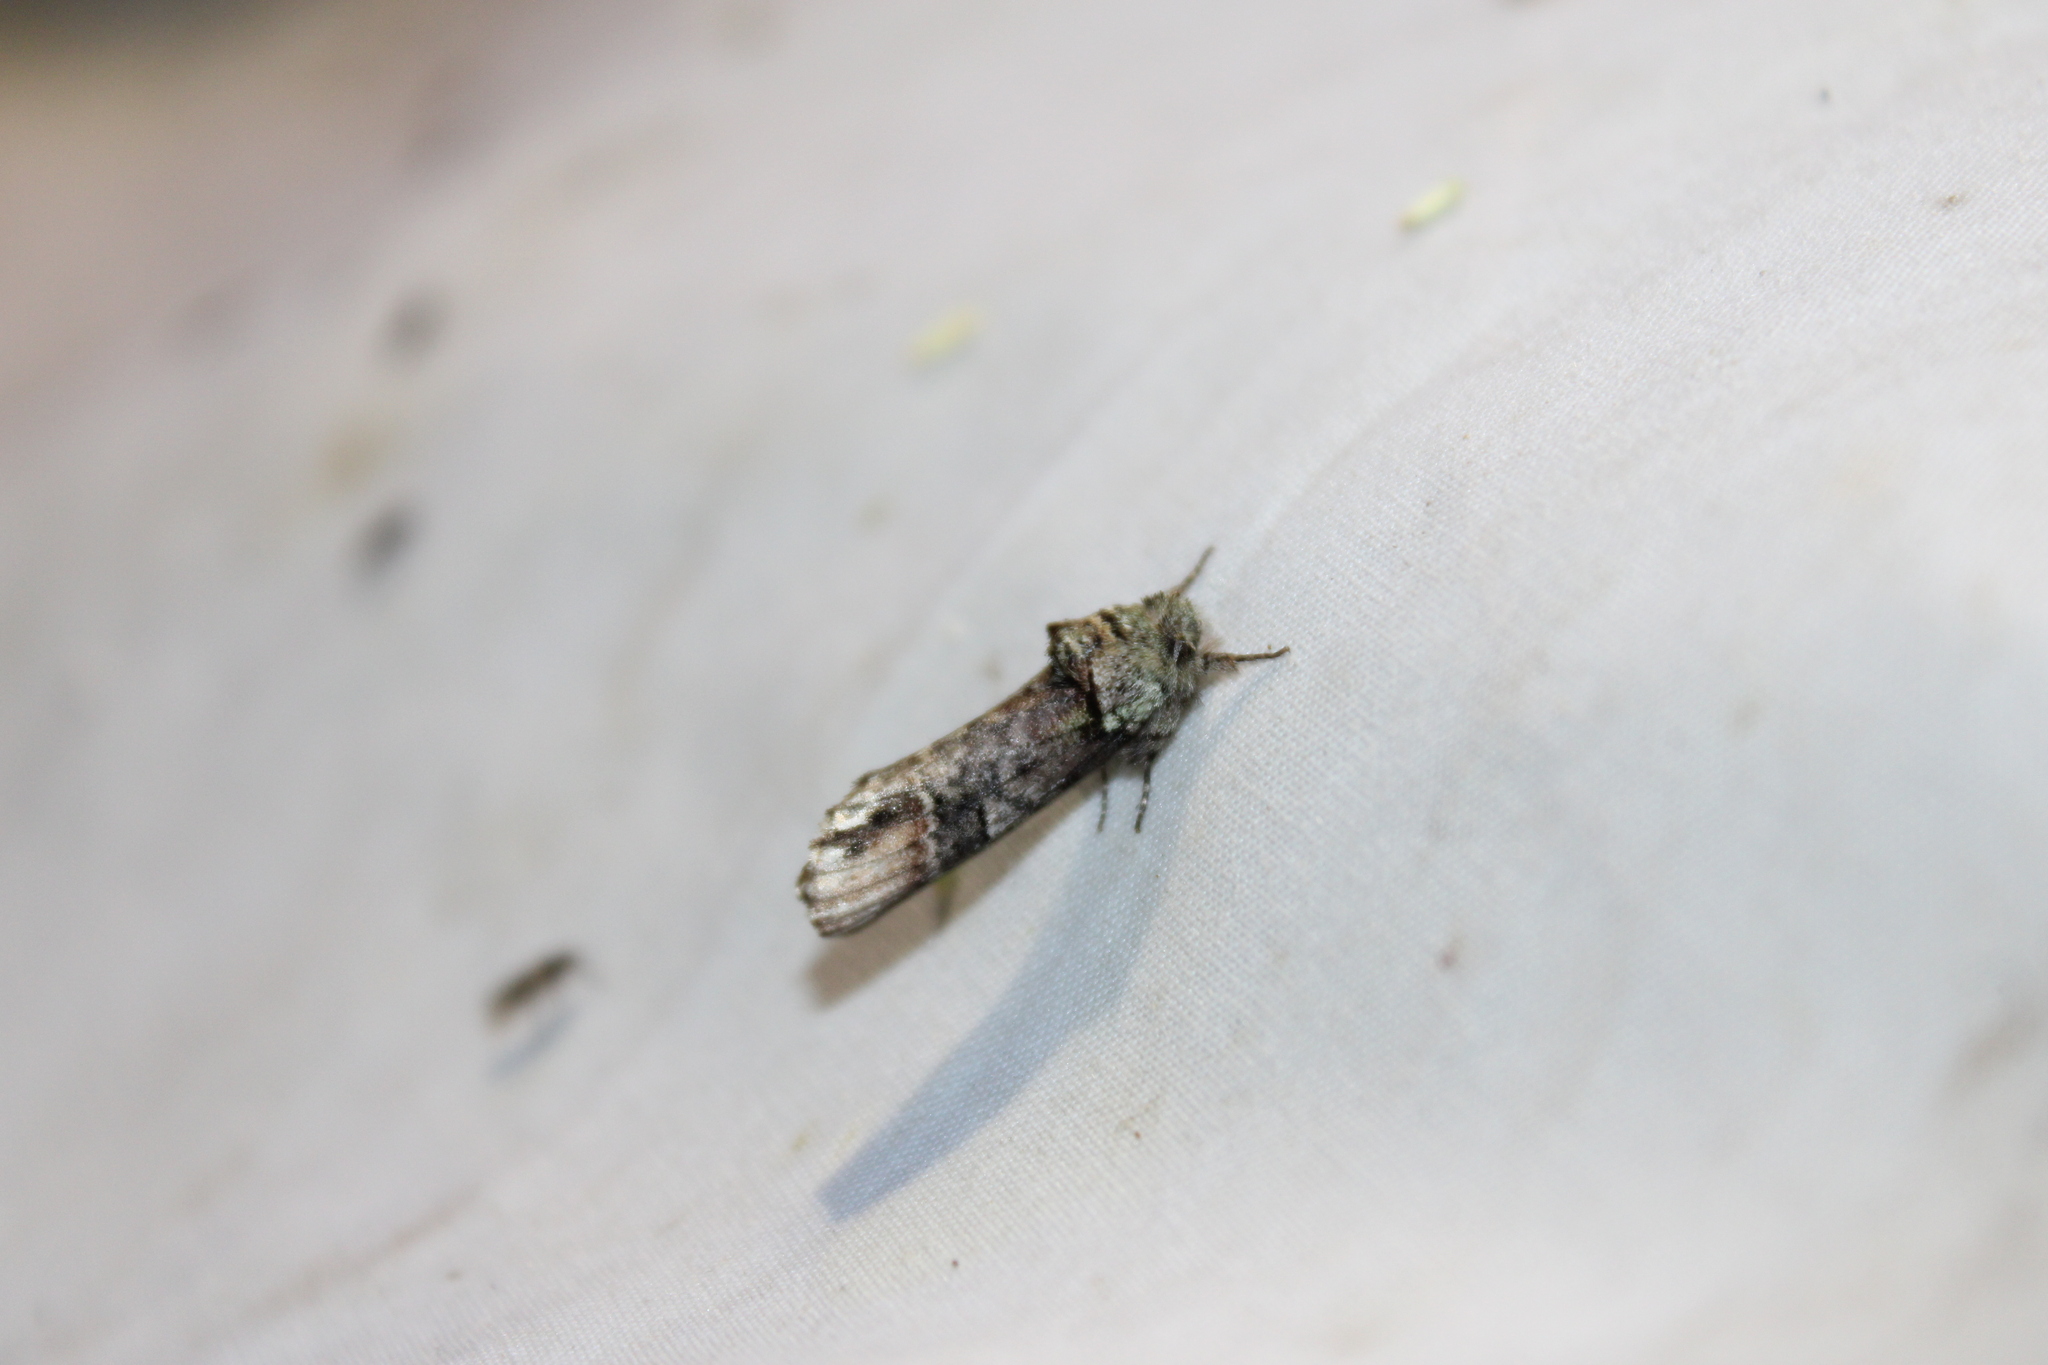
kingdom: Animalia
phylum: Arthropoda
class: Insecta
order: Lepidoptera
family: Notodontidae
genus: Schizura
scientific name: Schizura
